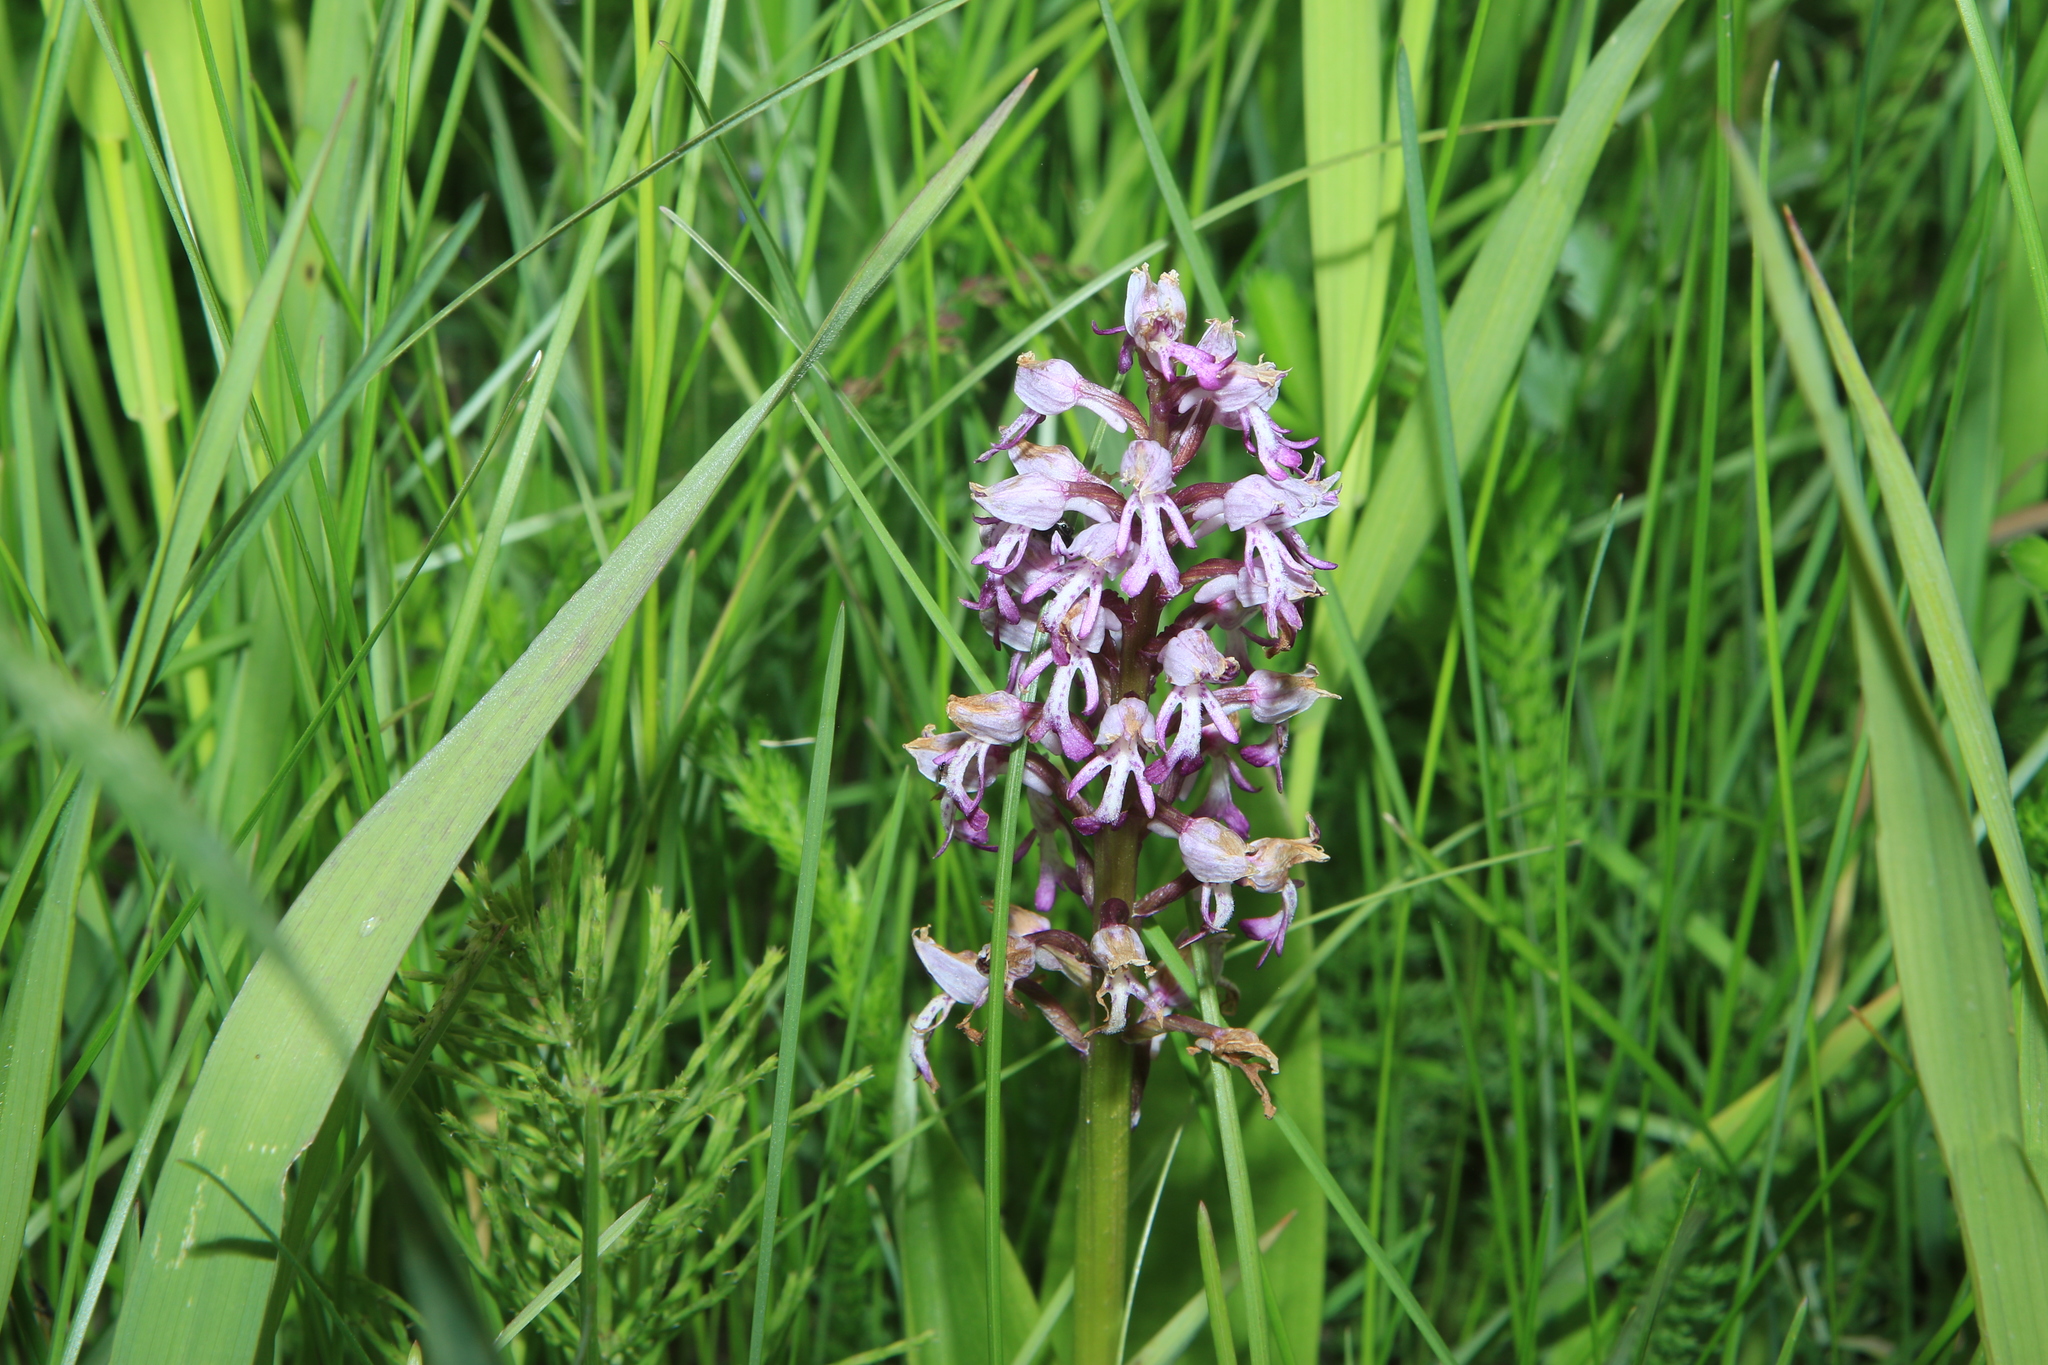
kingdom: Plantae
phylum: Tracheophyta
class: Liliopsida
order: Asparagales
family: Orchidaceae
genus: Orchis
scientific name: Orchis militaris
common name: Military orchid
